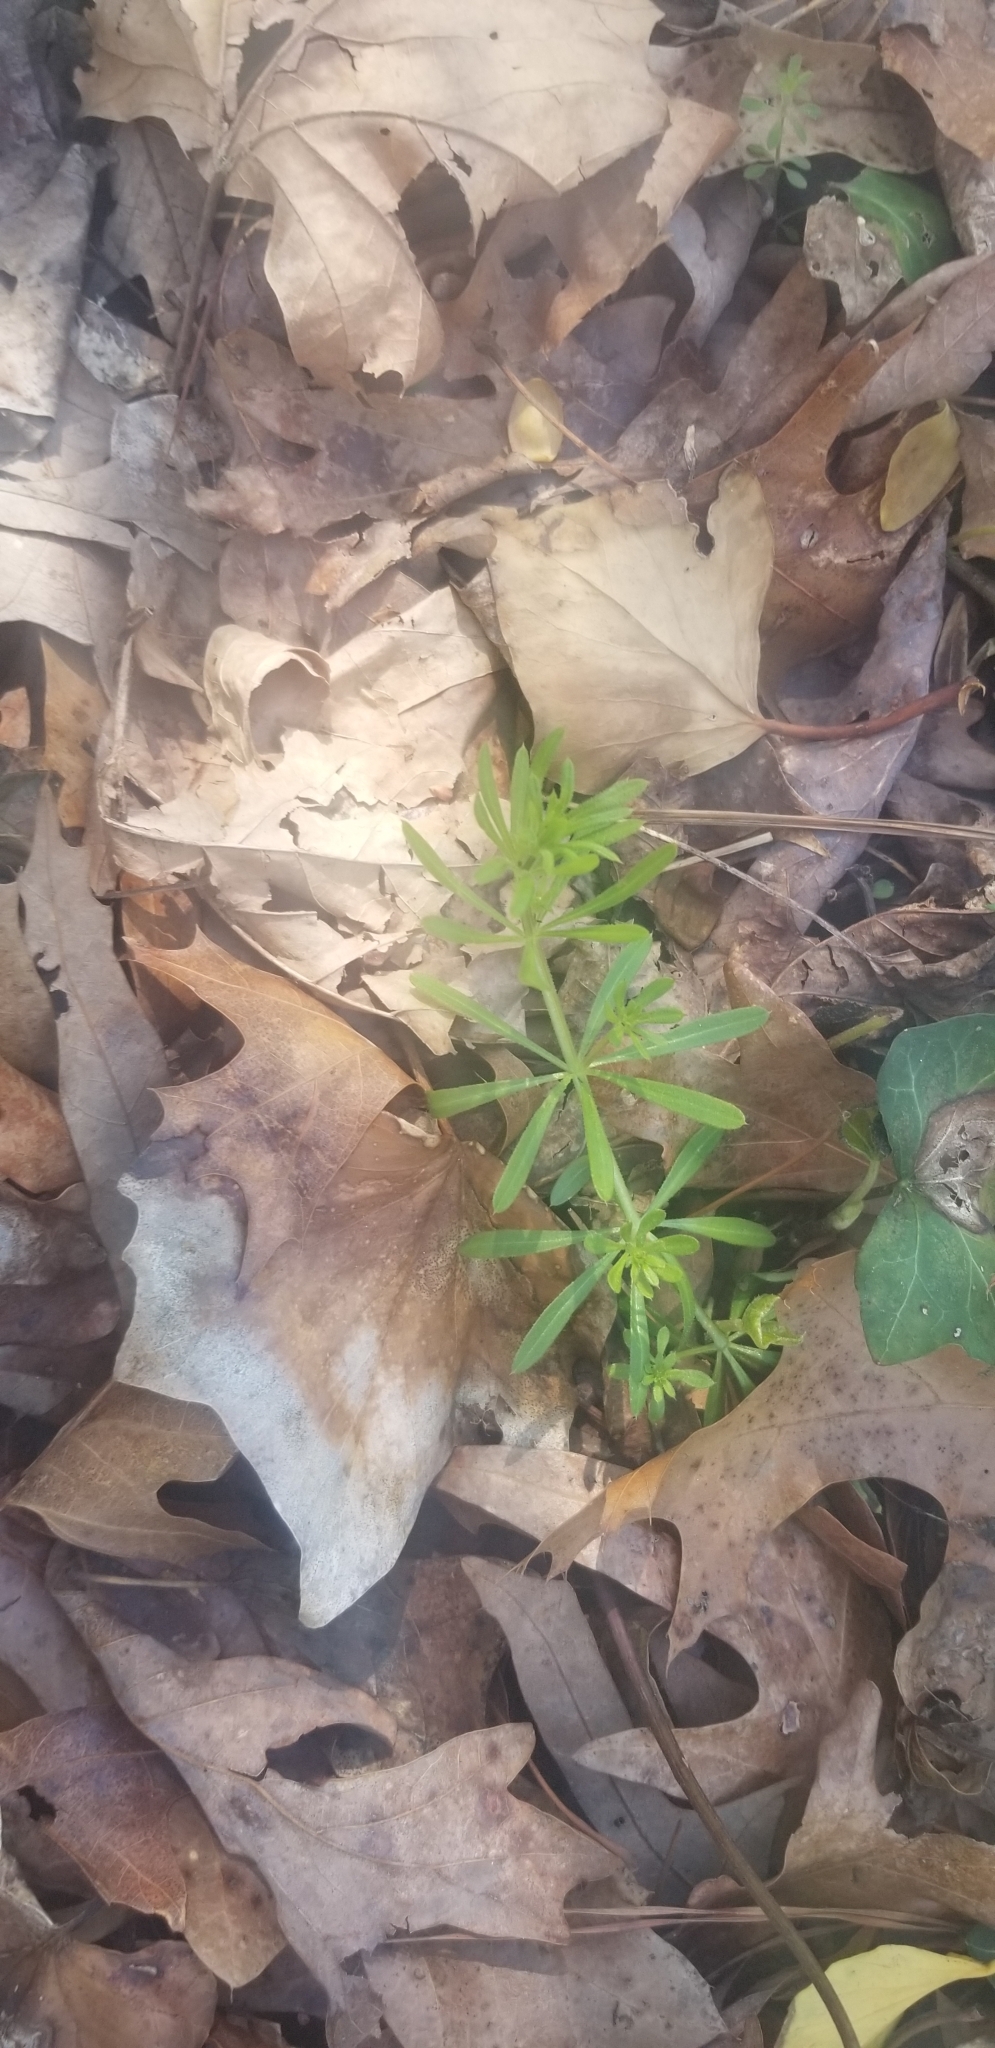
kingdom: Plantae
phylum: Tracheophyta
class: Magnoliopsida
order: Gentianales
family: Rubiaceae
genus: Galium
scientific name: Galium aparine
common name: Cleavers
